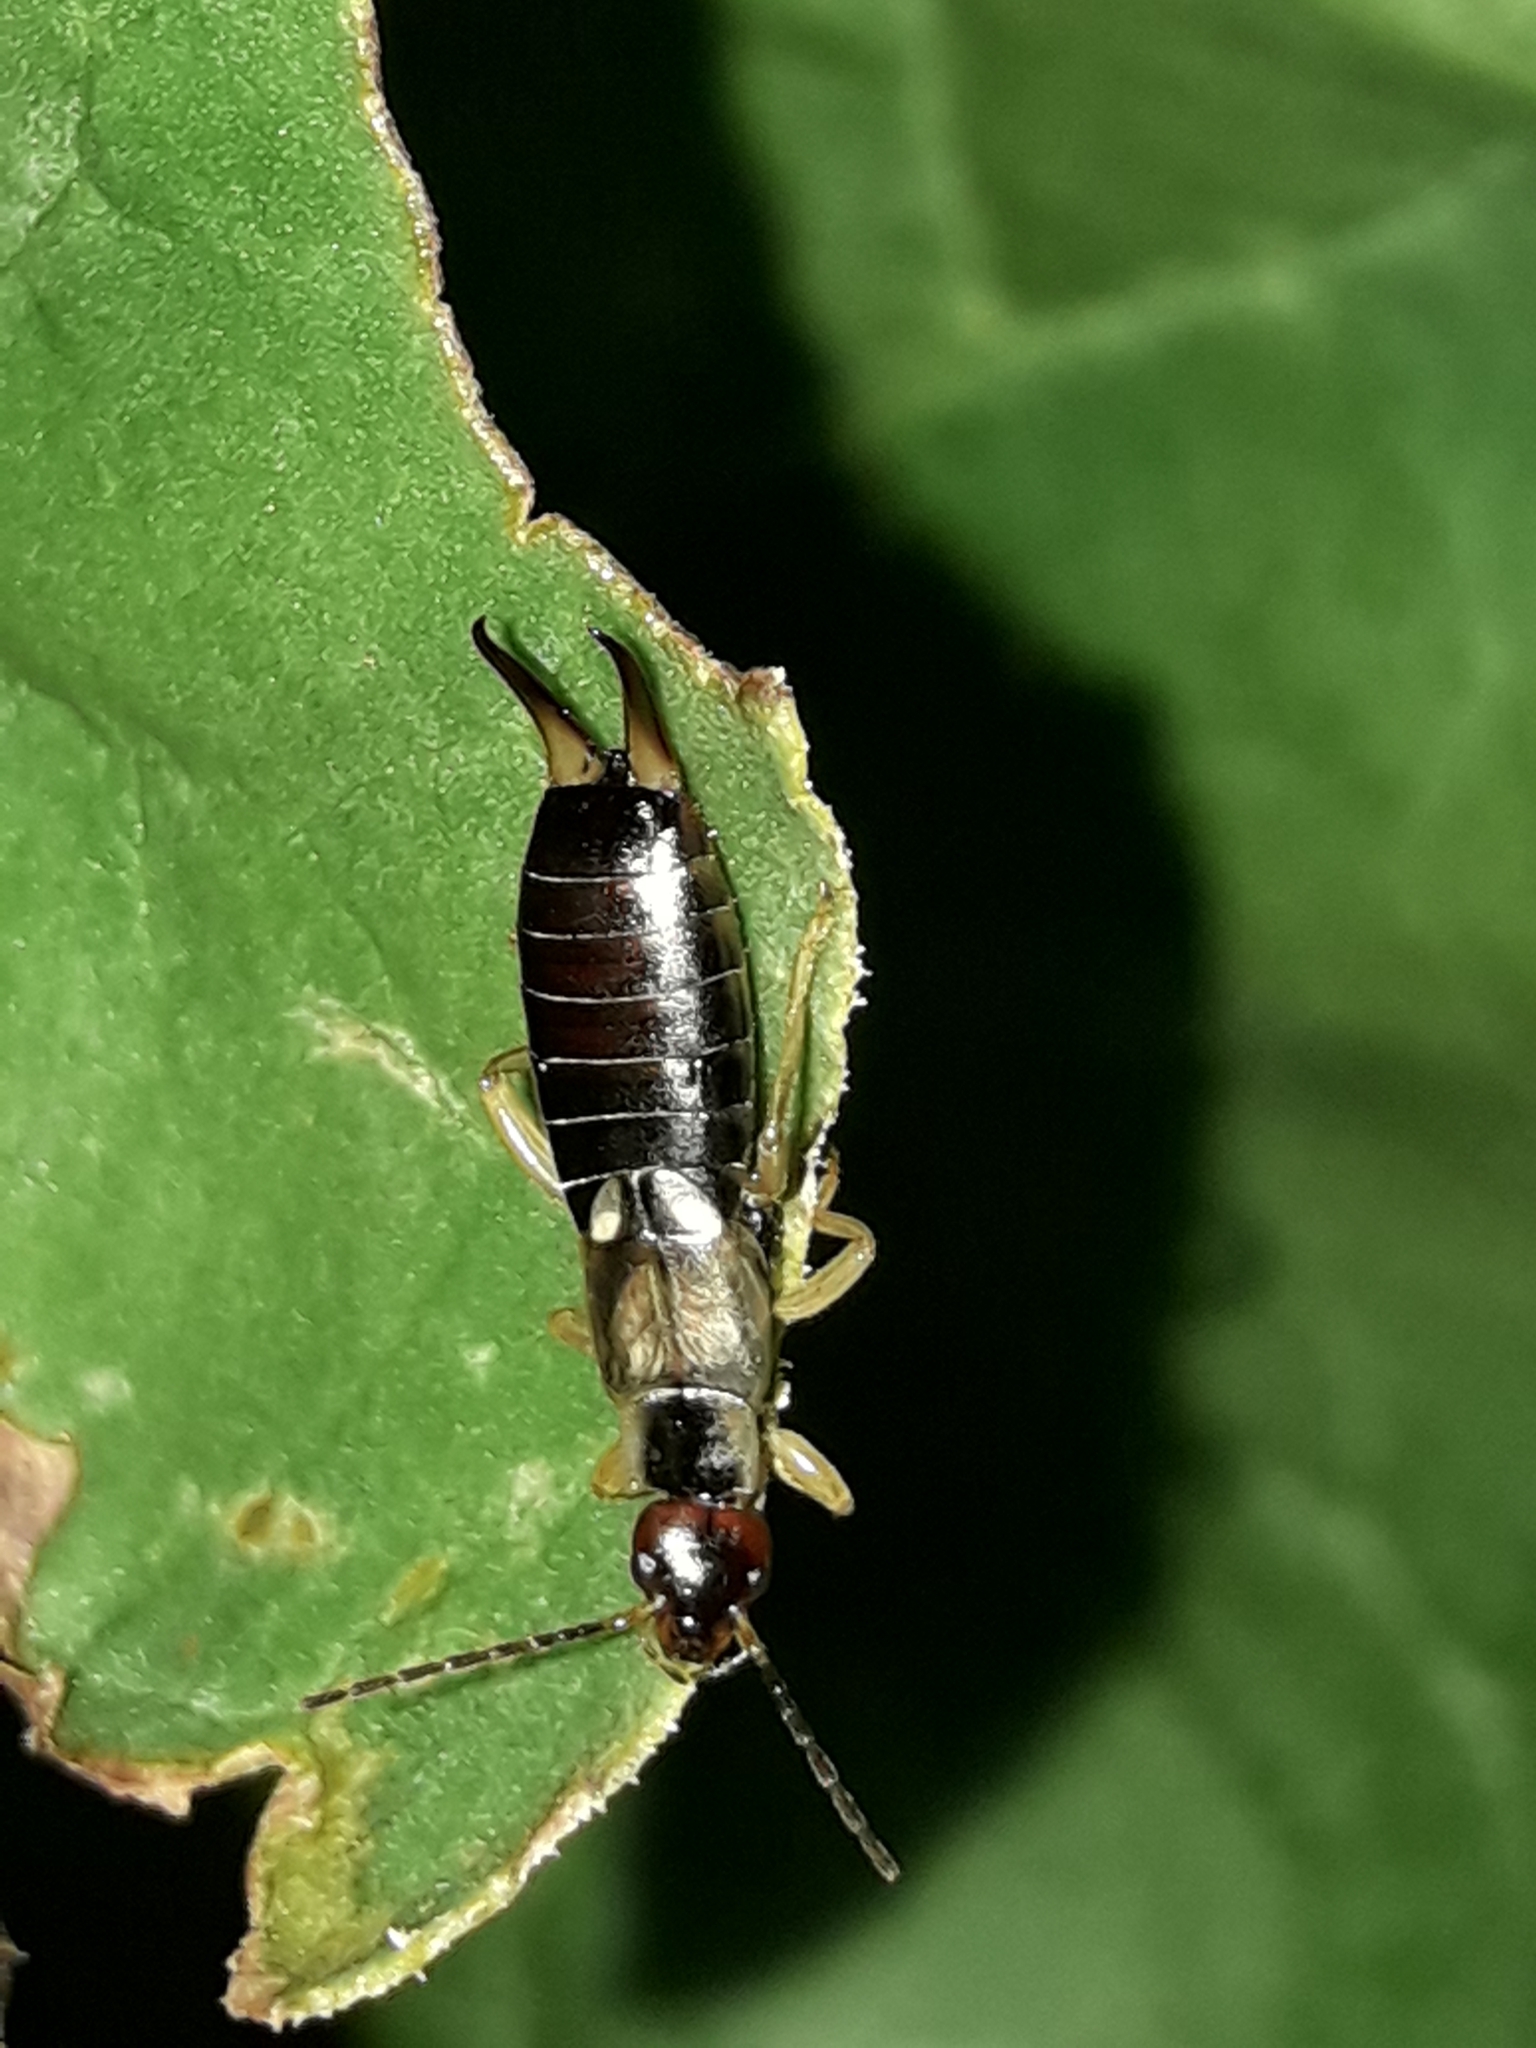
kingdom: Animalia
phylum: Arthropoda
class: Insecta
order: Dermaptera
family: Forficulidae
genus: Forficula
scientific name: Forficula
